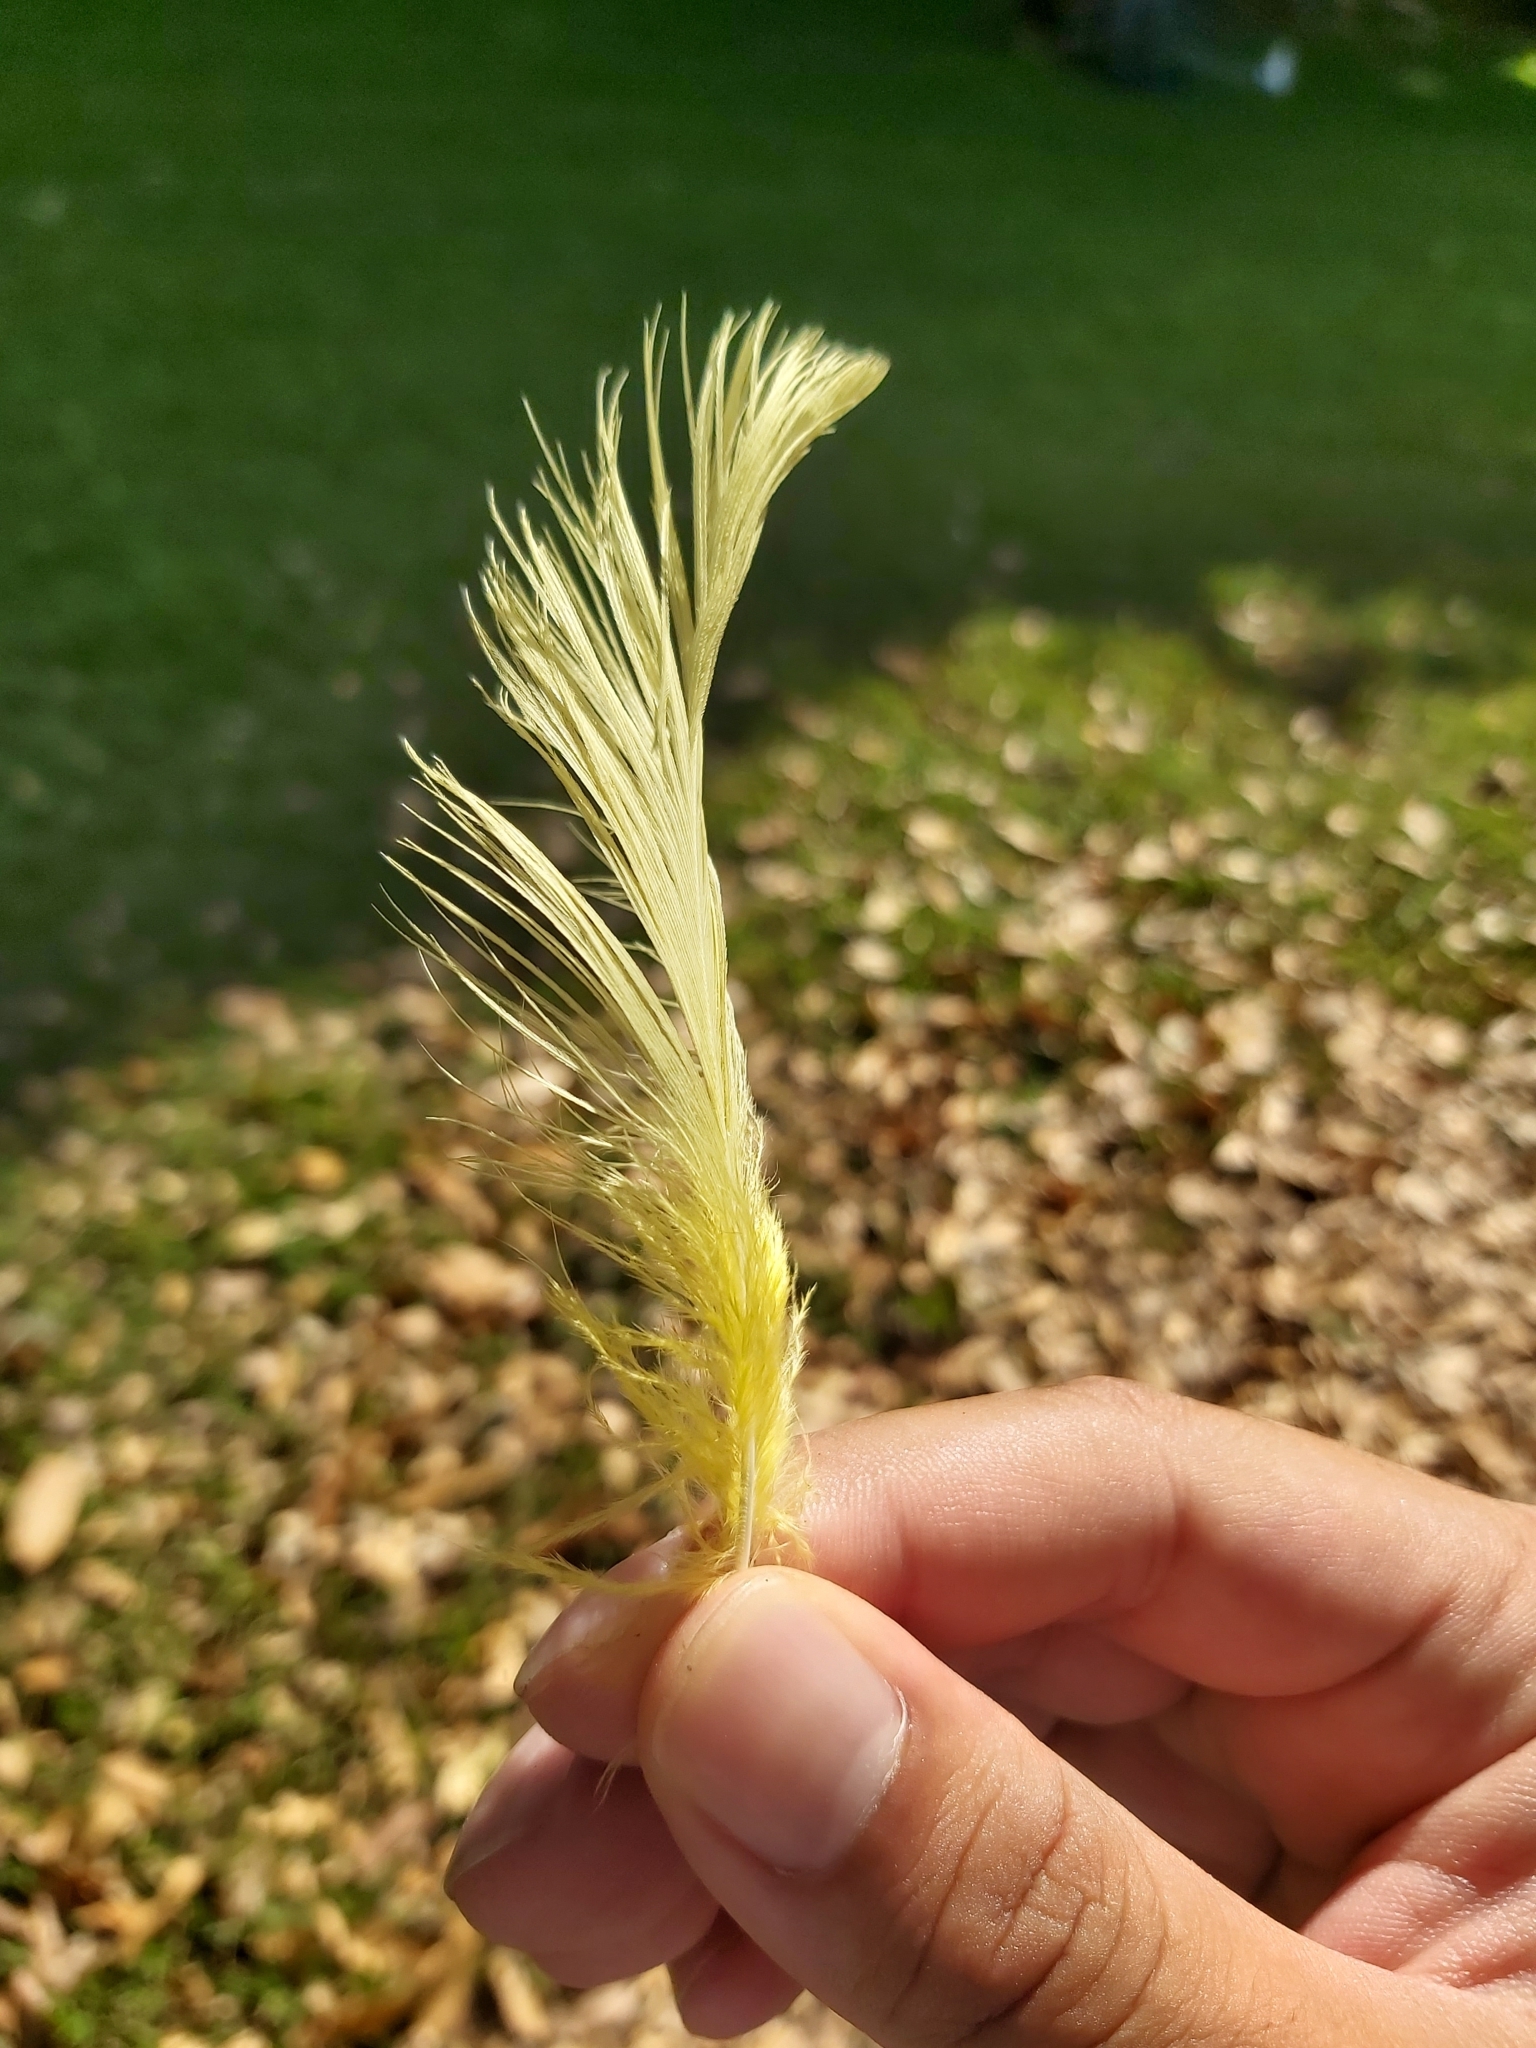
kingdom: Animalia
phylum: Chordata
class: Aves
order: Psittaciformes
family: Psittacidae
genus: Cacatua
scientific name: Cacatua galerita
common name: Sulphur-crested cockatoo
